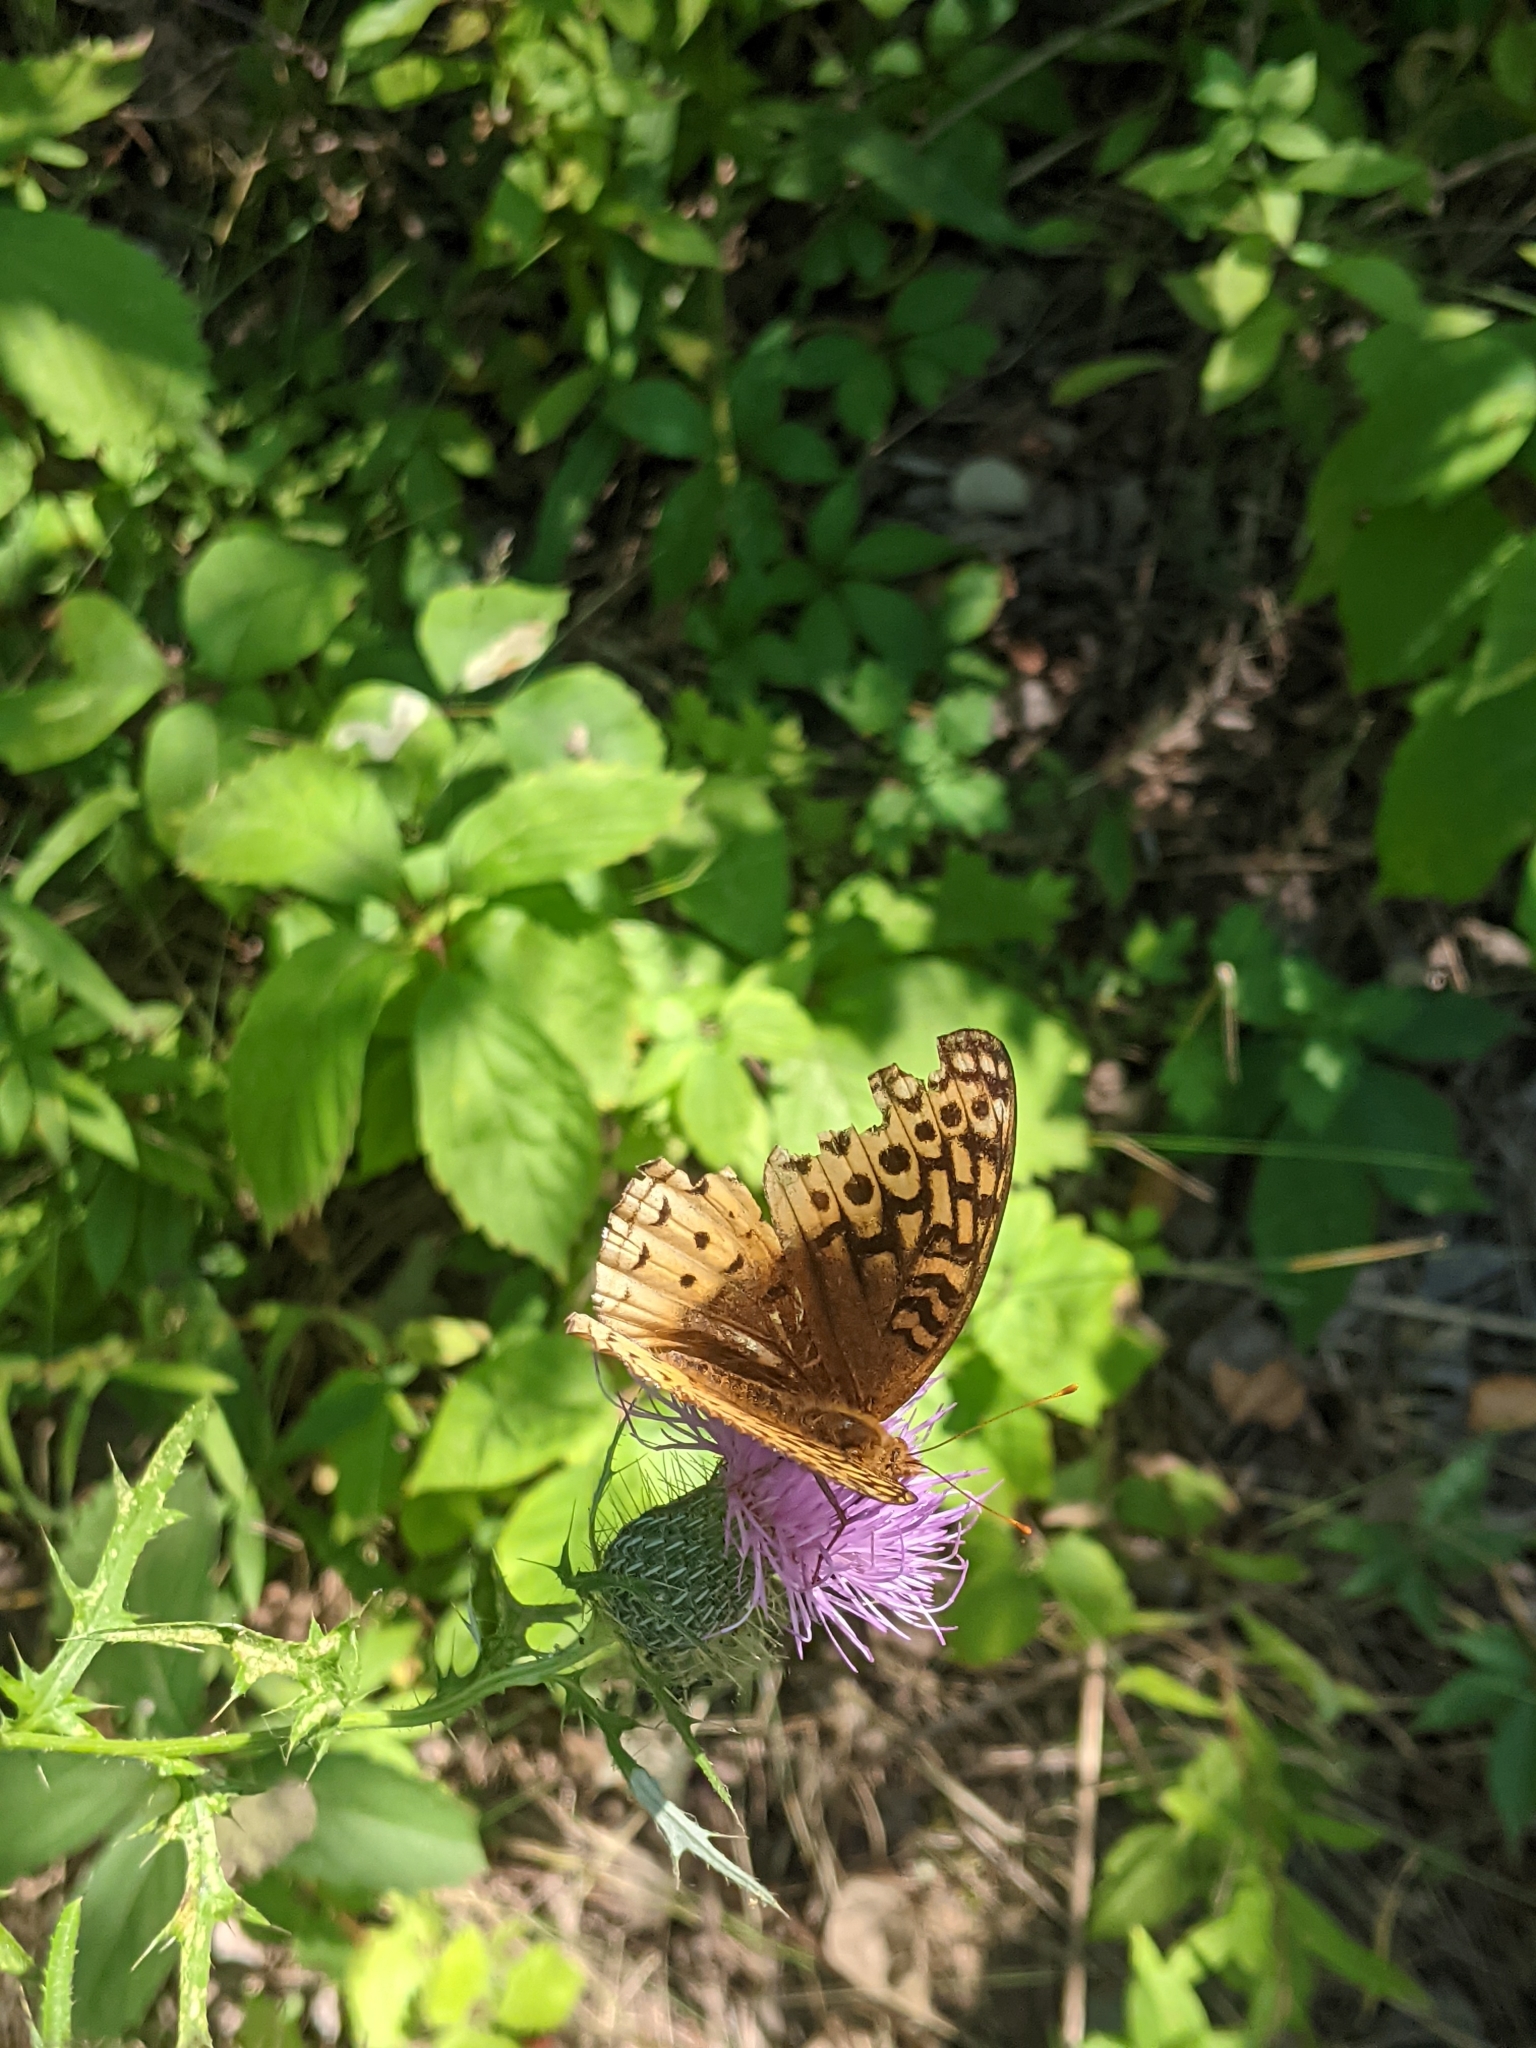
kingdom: Animalia
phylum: Arthropoda
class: Insecta
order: Lepidoptera
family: Nymphalidae
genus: Speyeria
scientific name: Speyeria cybele
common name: Great spangled fritillary
